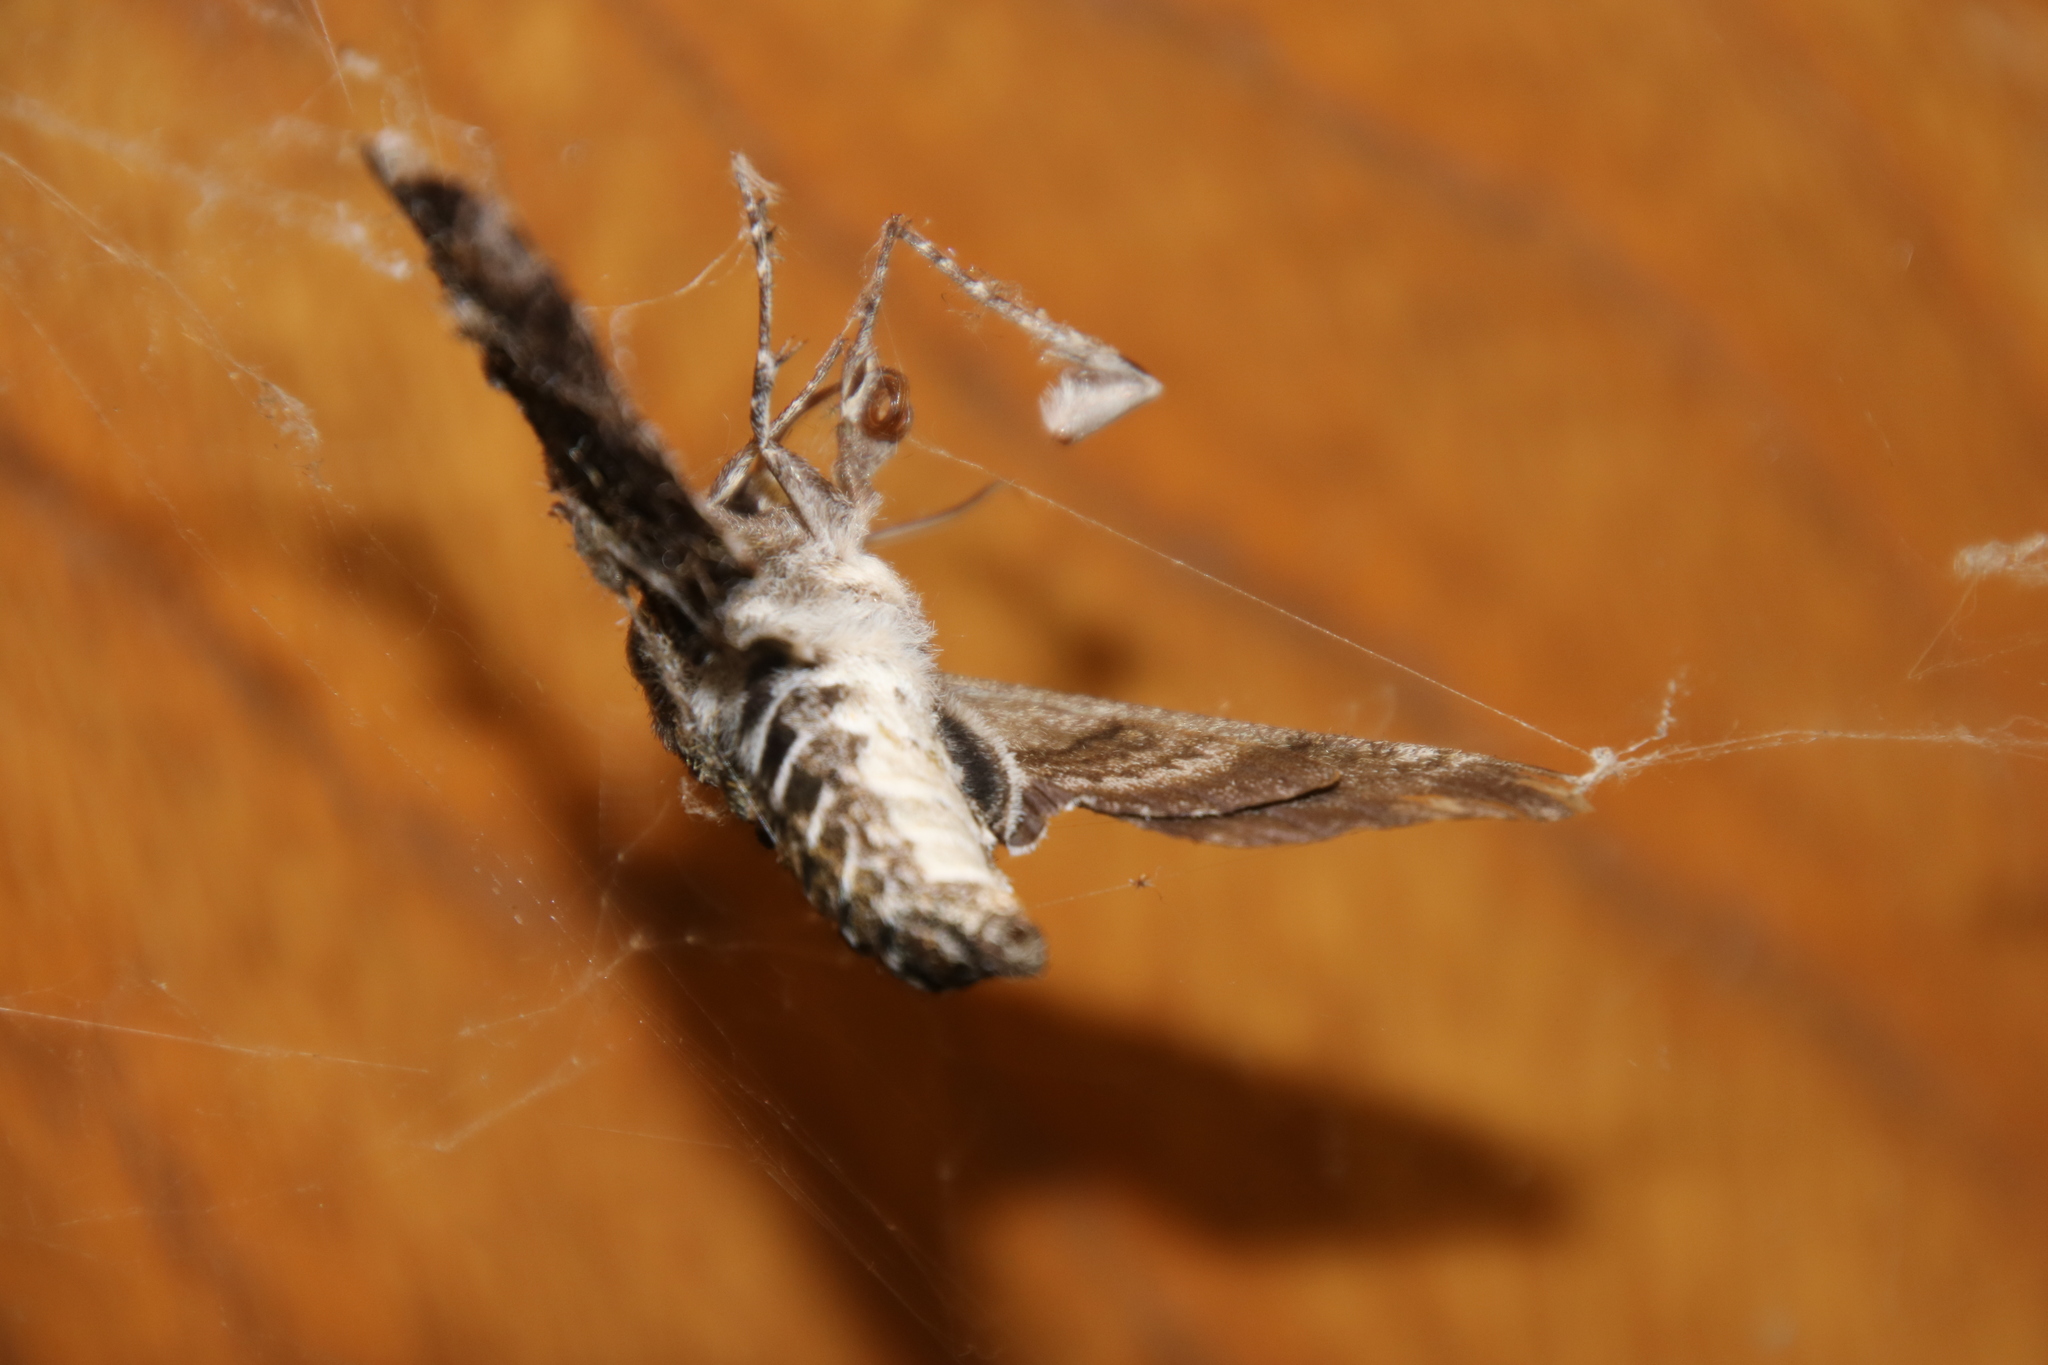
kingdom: Animalia
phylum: Arthropoda
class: Insecta
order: Lepidoptera
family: Sphingidae
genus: Dolba
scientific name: Dolba hyloeus
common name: Pawpaw sphinx
